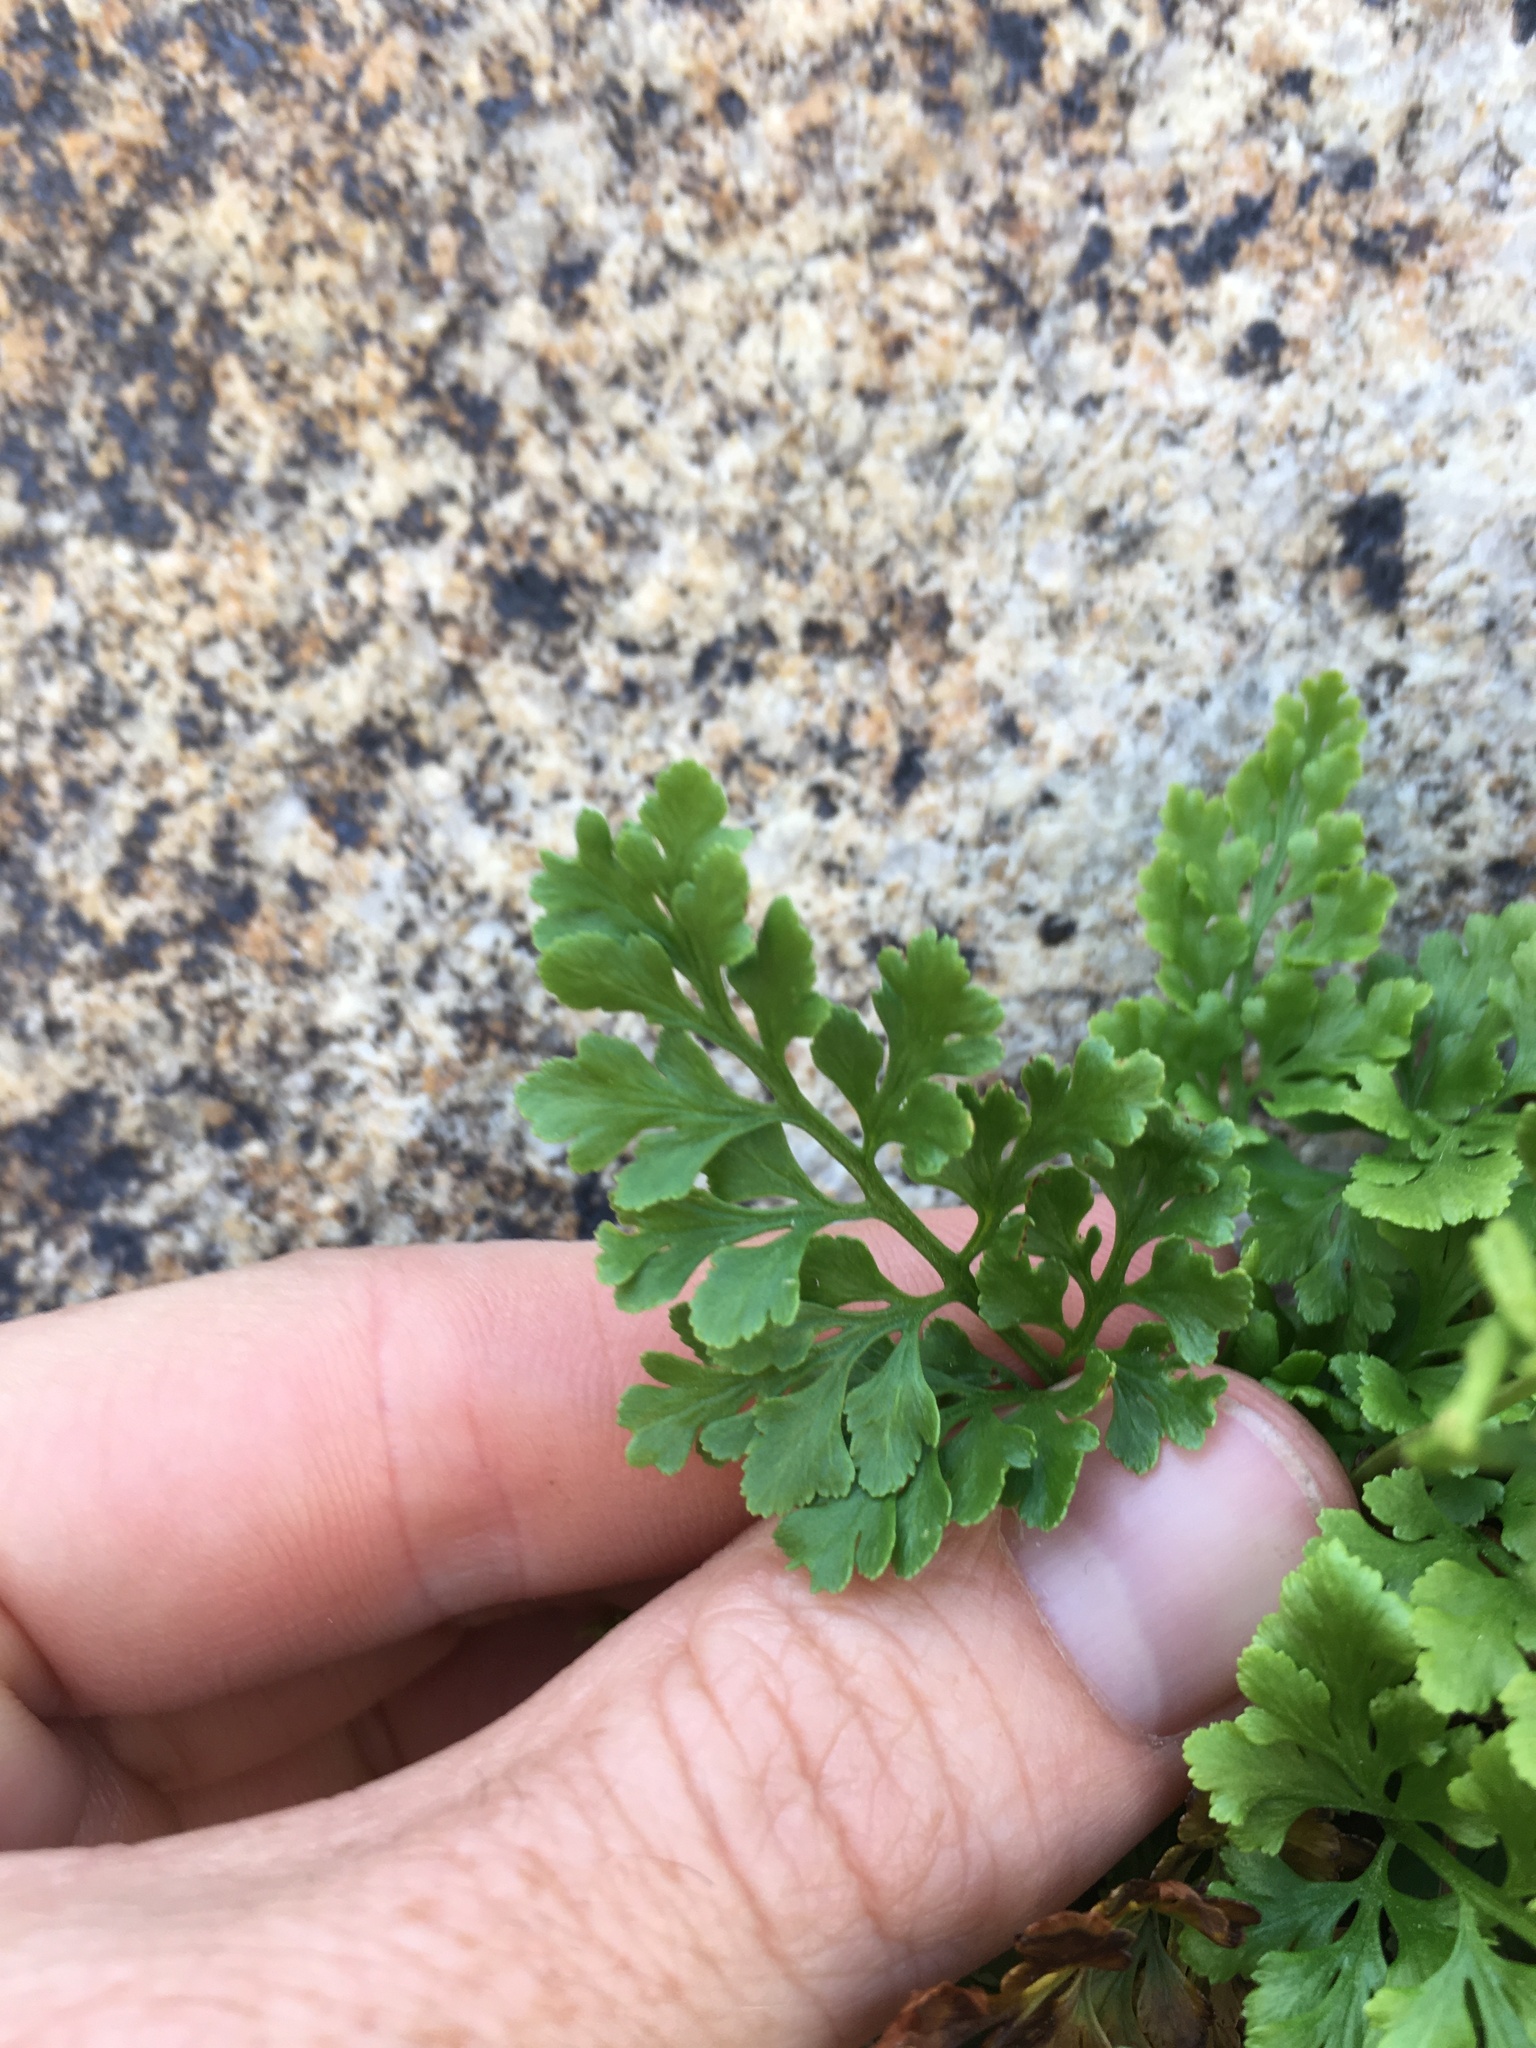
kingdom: Plantae
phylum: Tracheophyta
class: Polypodiopsida
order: Polypodiales
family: Pteridaceae
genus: Cryptogramma
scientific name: Cryptogramma acrostichoides
